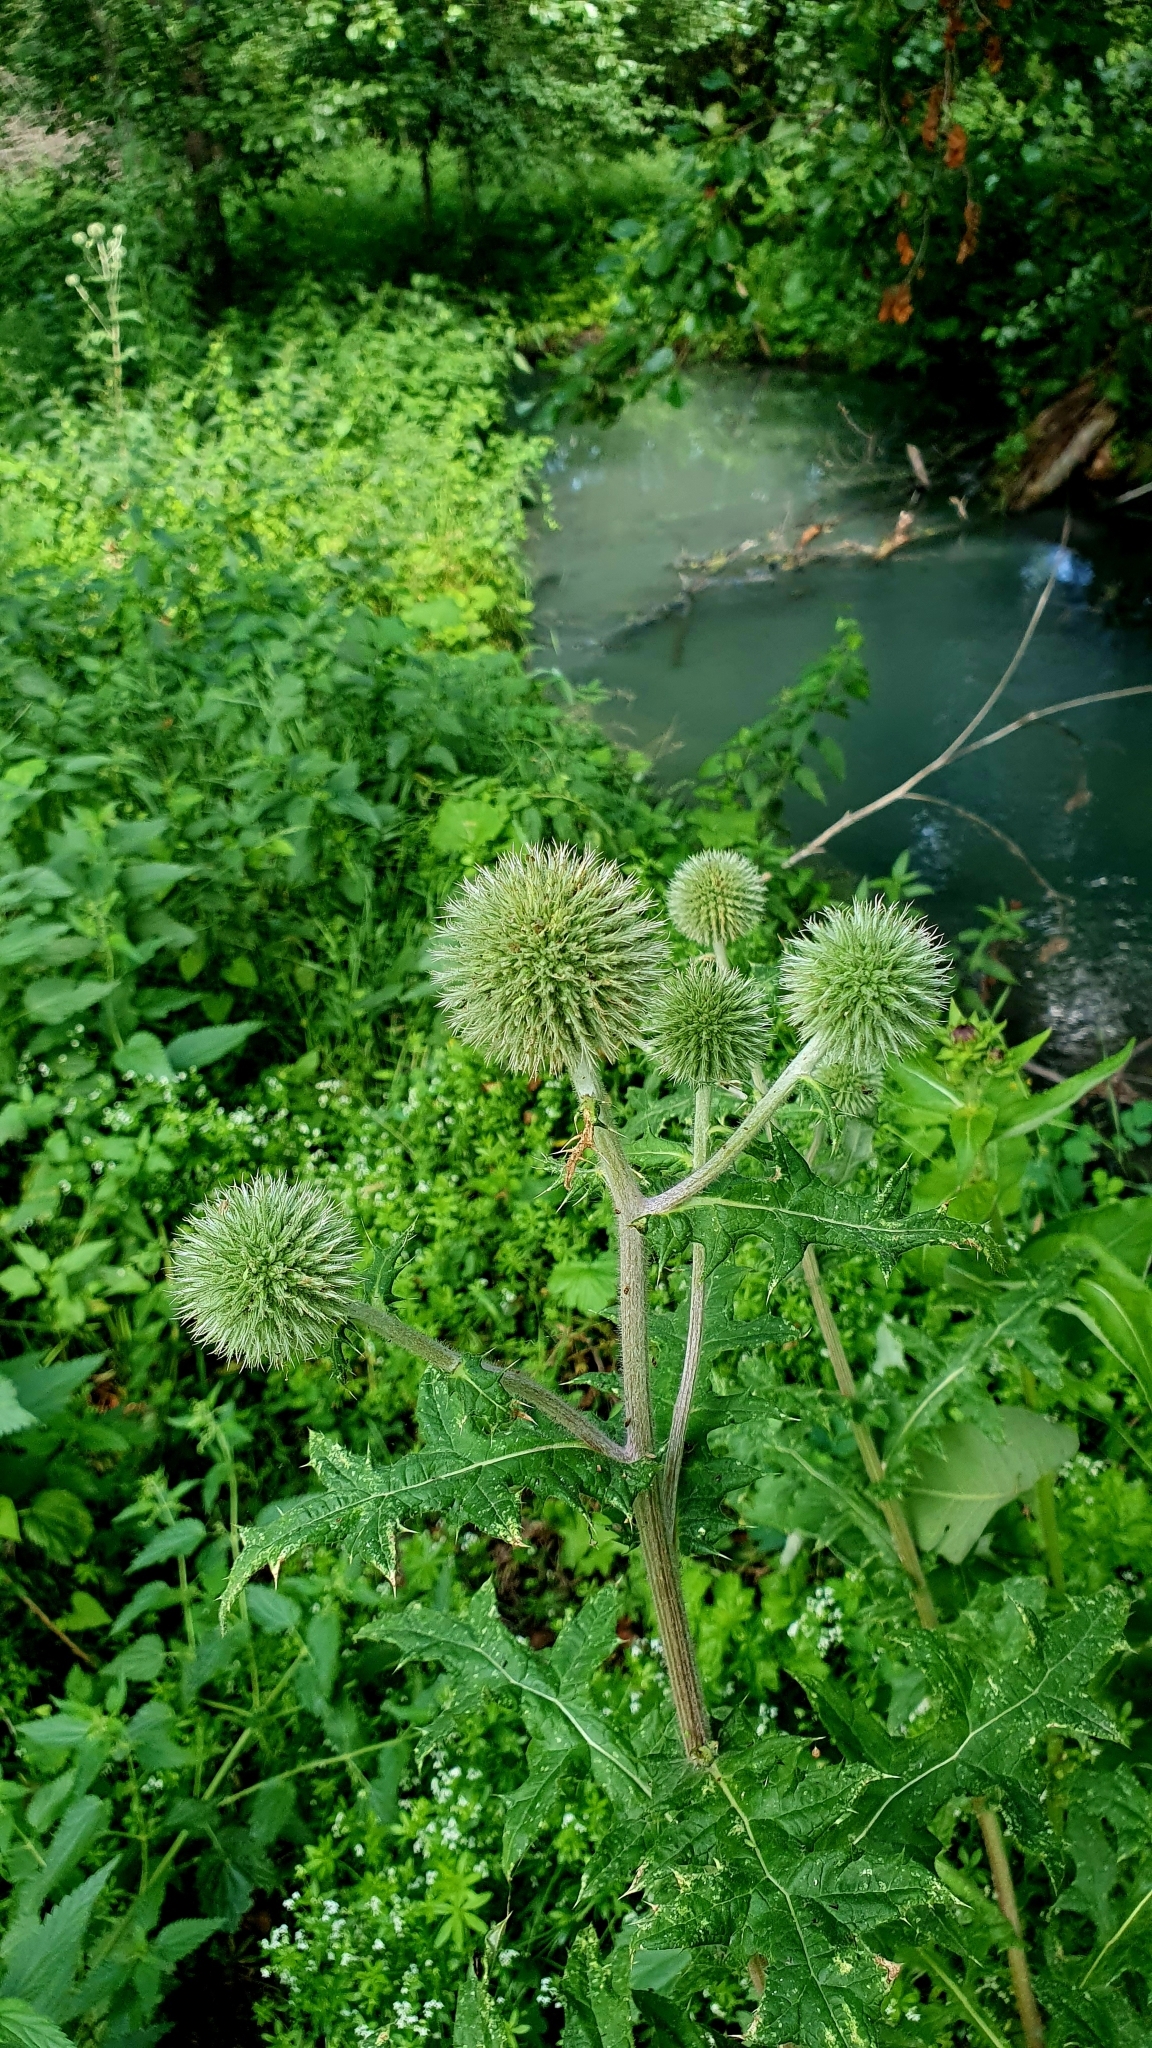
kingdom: Plantae
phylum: Tracheophyta
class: Magnoliopsida
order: Asterales
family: Asteraceae
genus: Echinops
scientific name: Echinops sphaerocephalus
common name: Glandular globe-thistle
